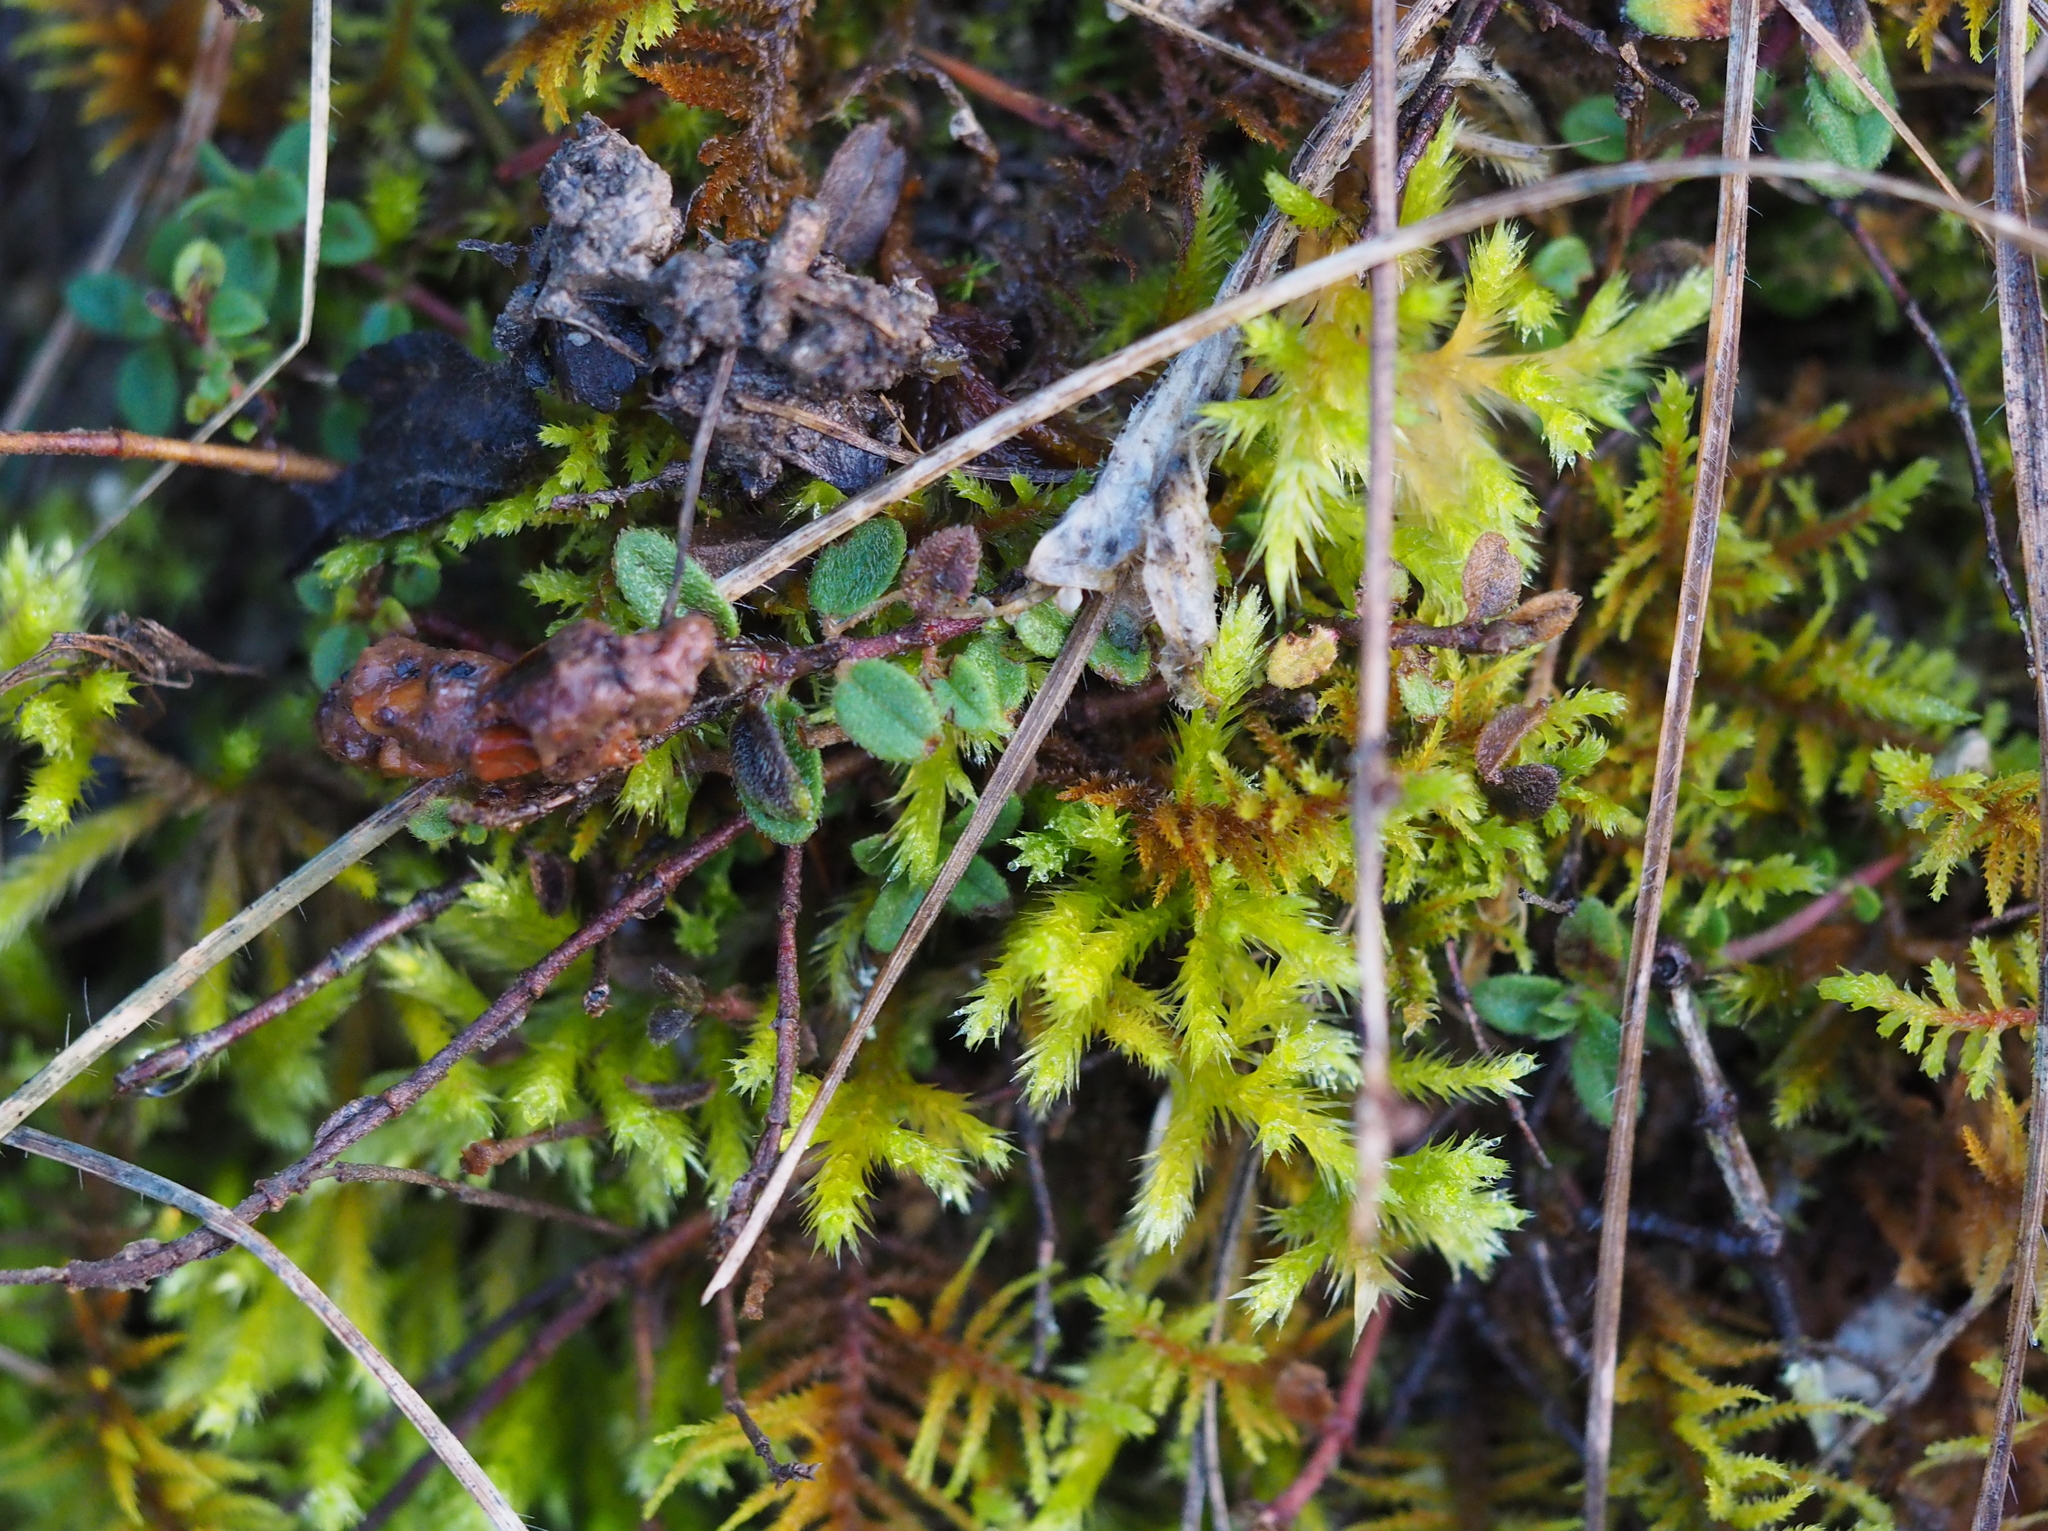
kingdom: Plantae
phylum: Bryophyta
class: Bryopsida
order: Hypnales
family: Brachytheciaceae
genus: Homalothecium
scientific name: Homalothecium lutescens
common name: Yellow feather-moss
